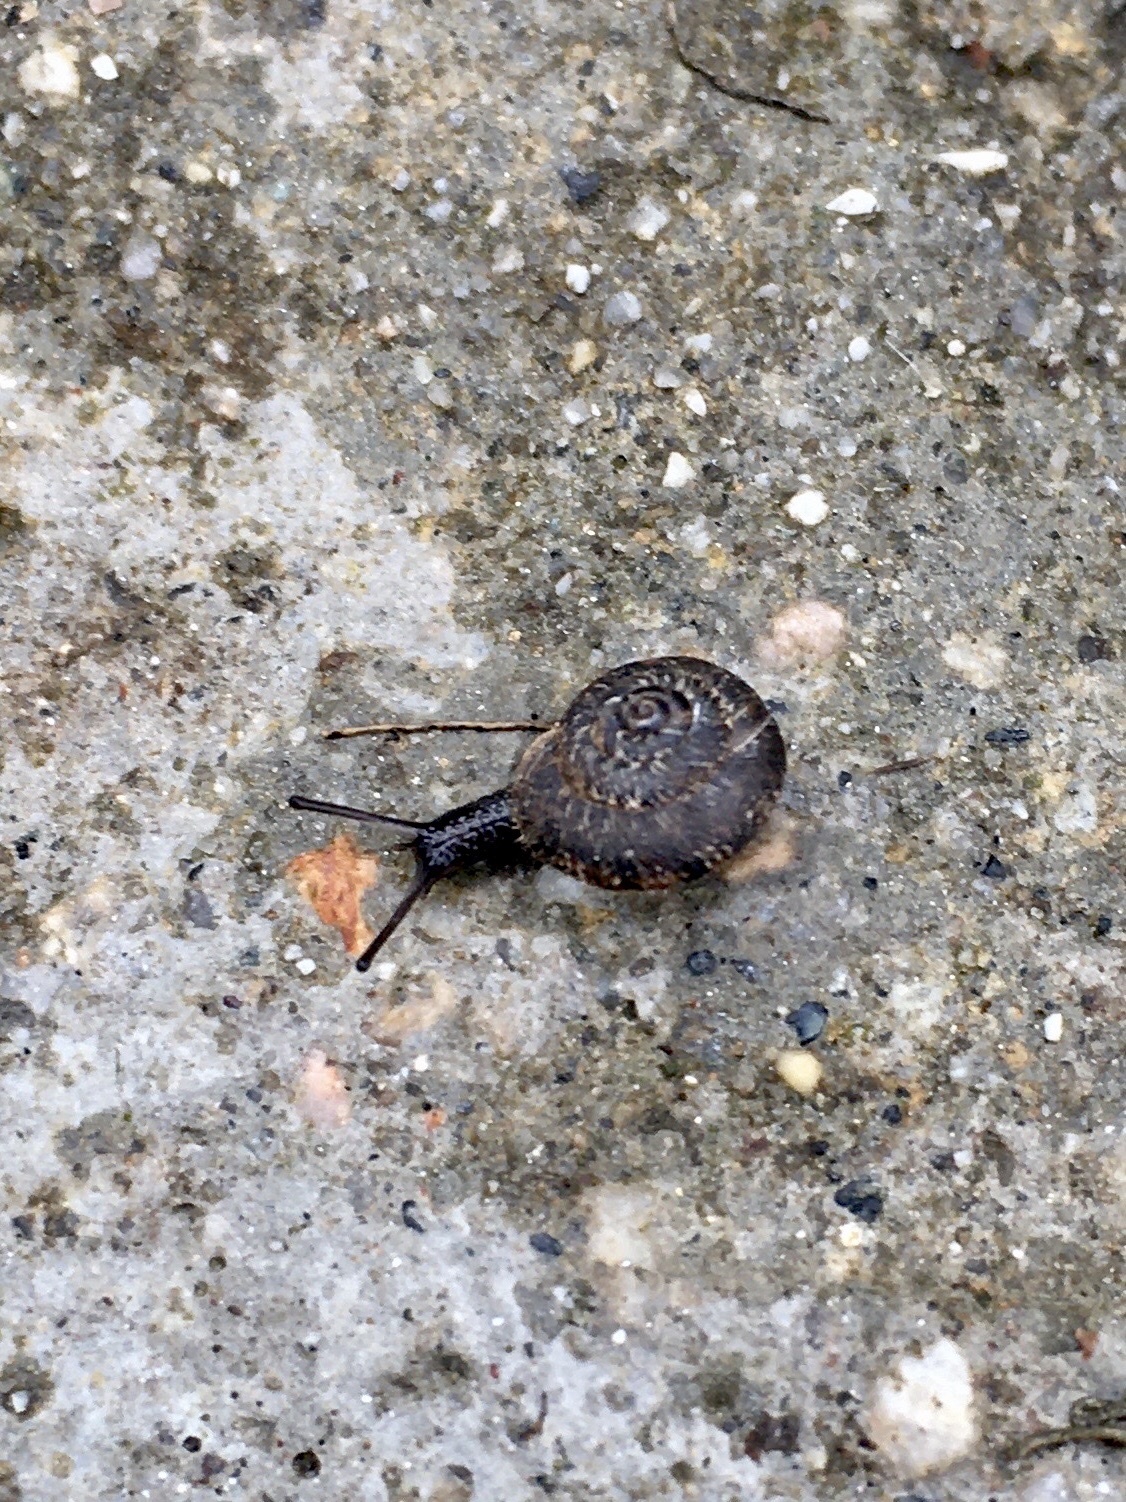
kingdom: Animalia
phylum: Mollusca
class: Gastropoda
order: Stylommatophora
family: Geomitridae
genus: Xerotricha
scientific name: Xerotricha conspurcata
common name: Snail
